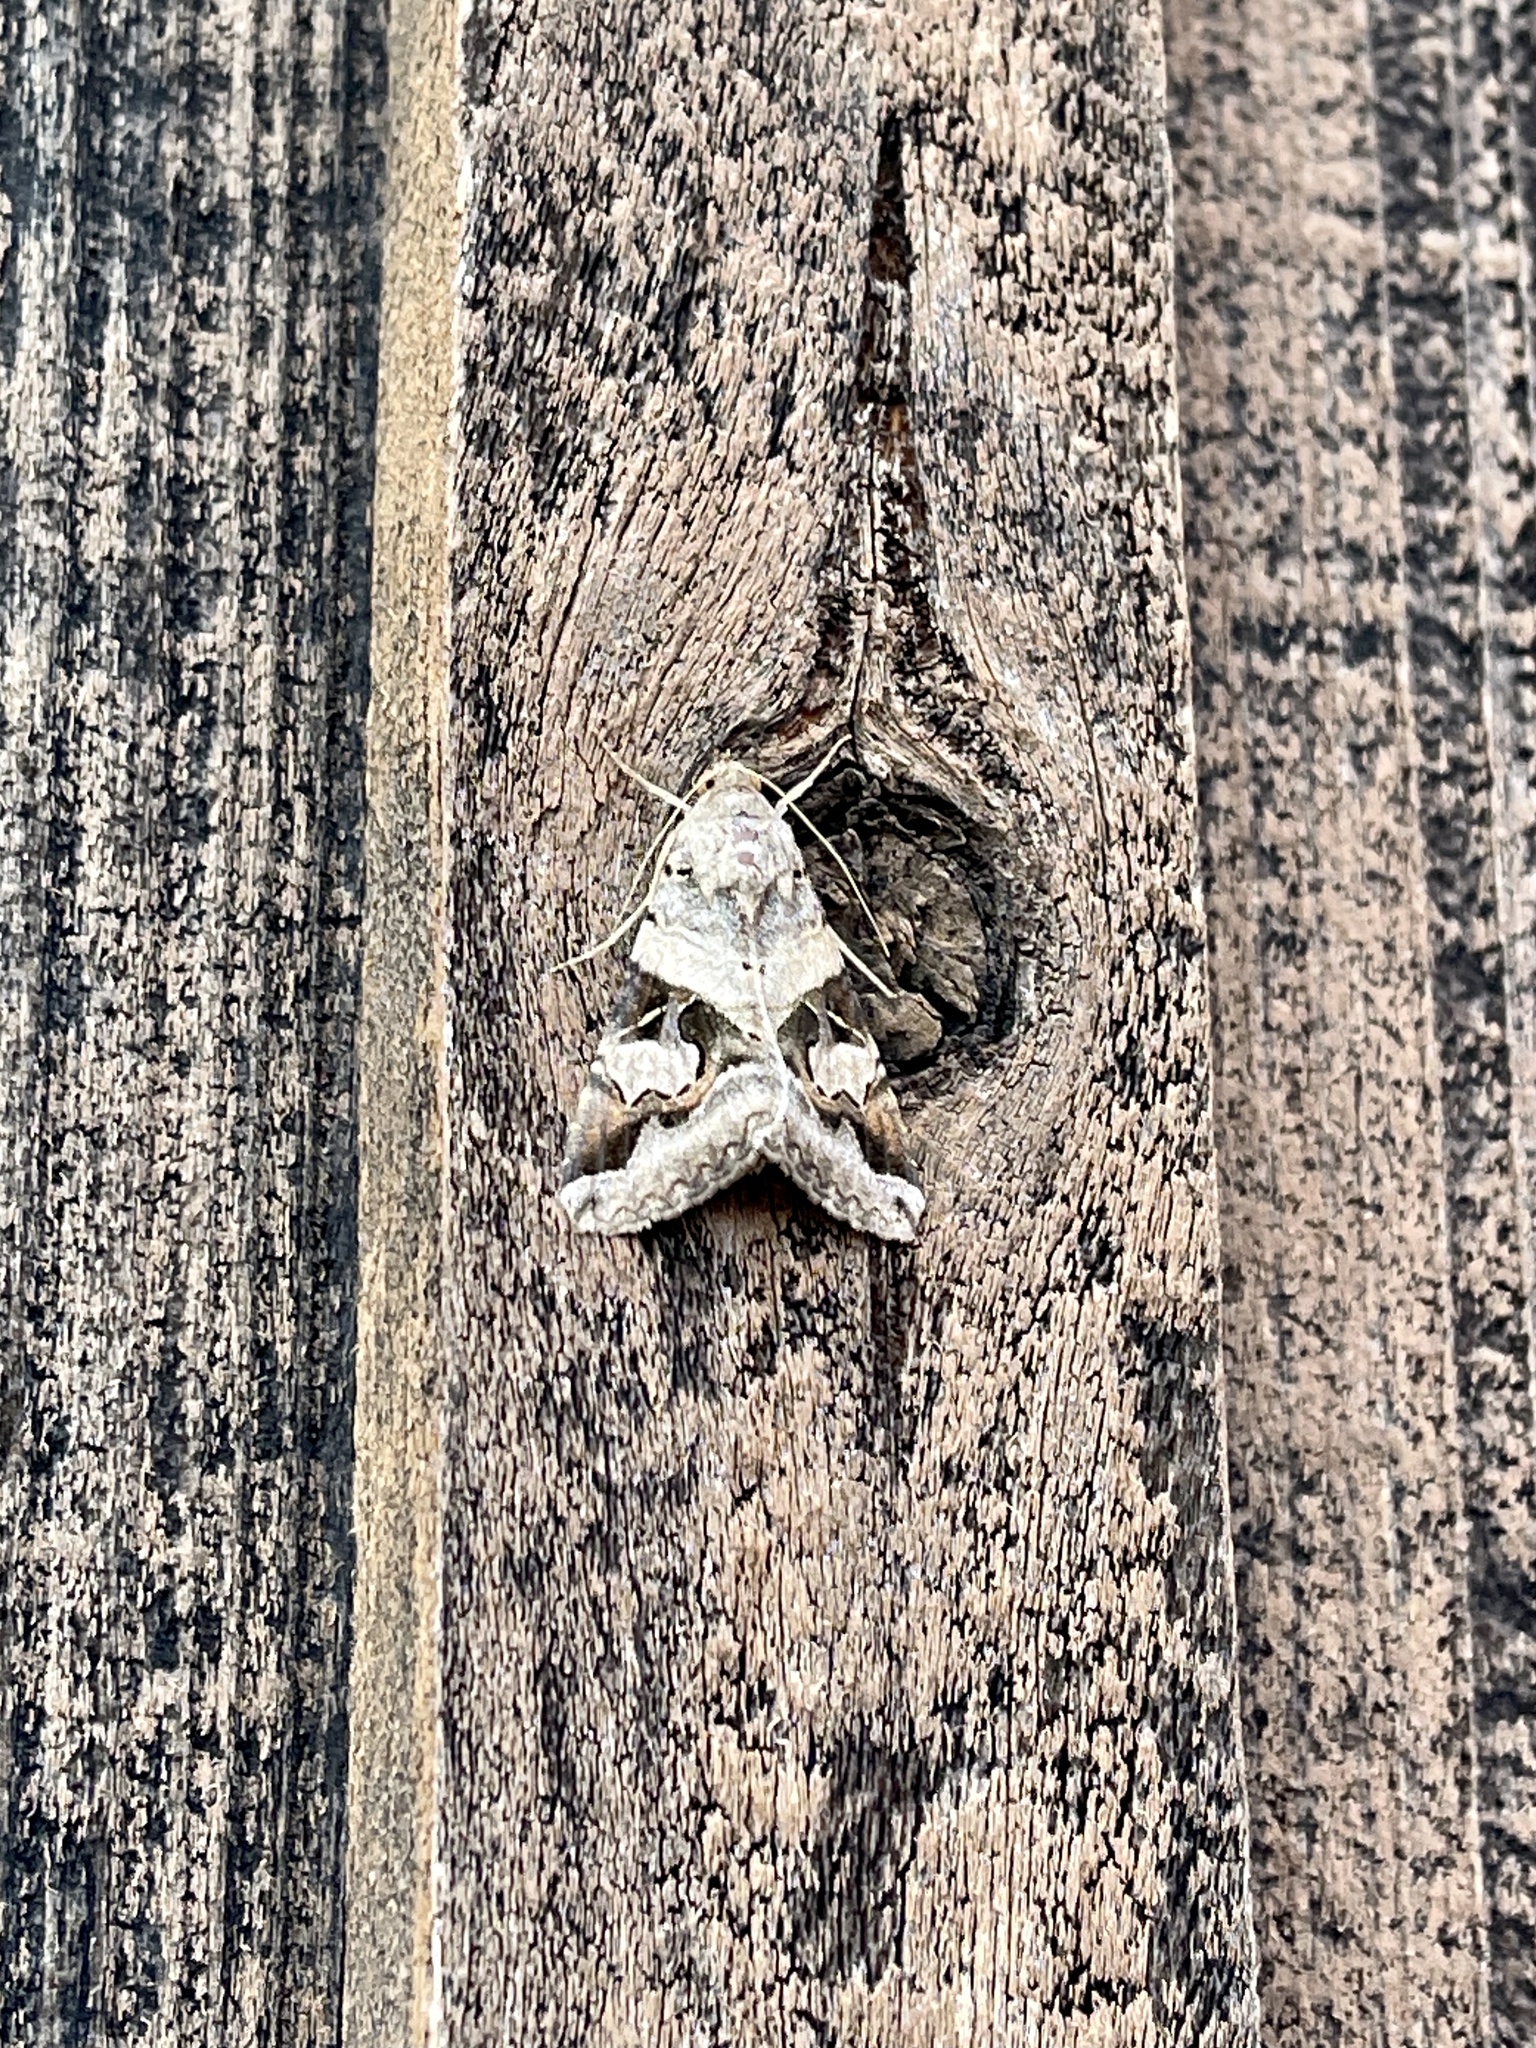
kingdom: Animalia
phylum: Arthropoda
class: Insecta
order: Lepidoptera
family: Erebidae
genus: Melipotis
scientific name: Melipotis indomita
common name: Moth
